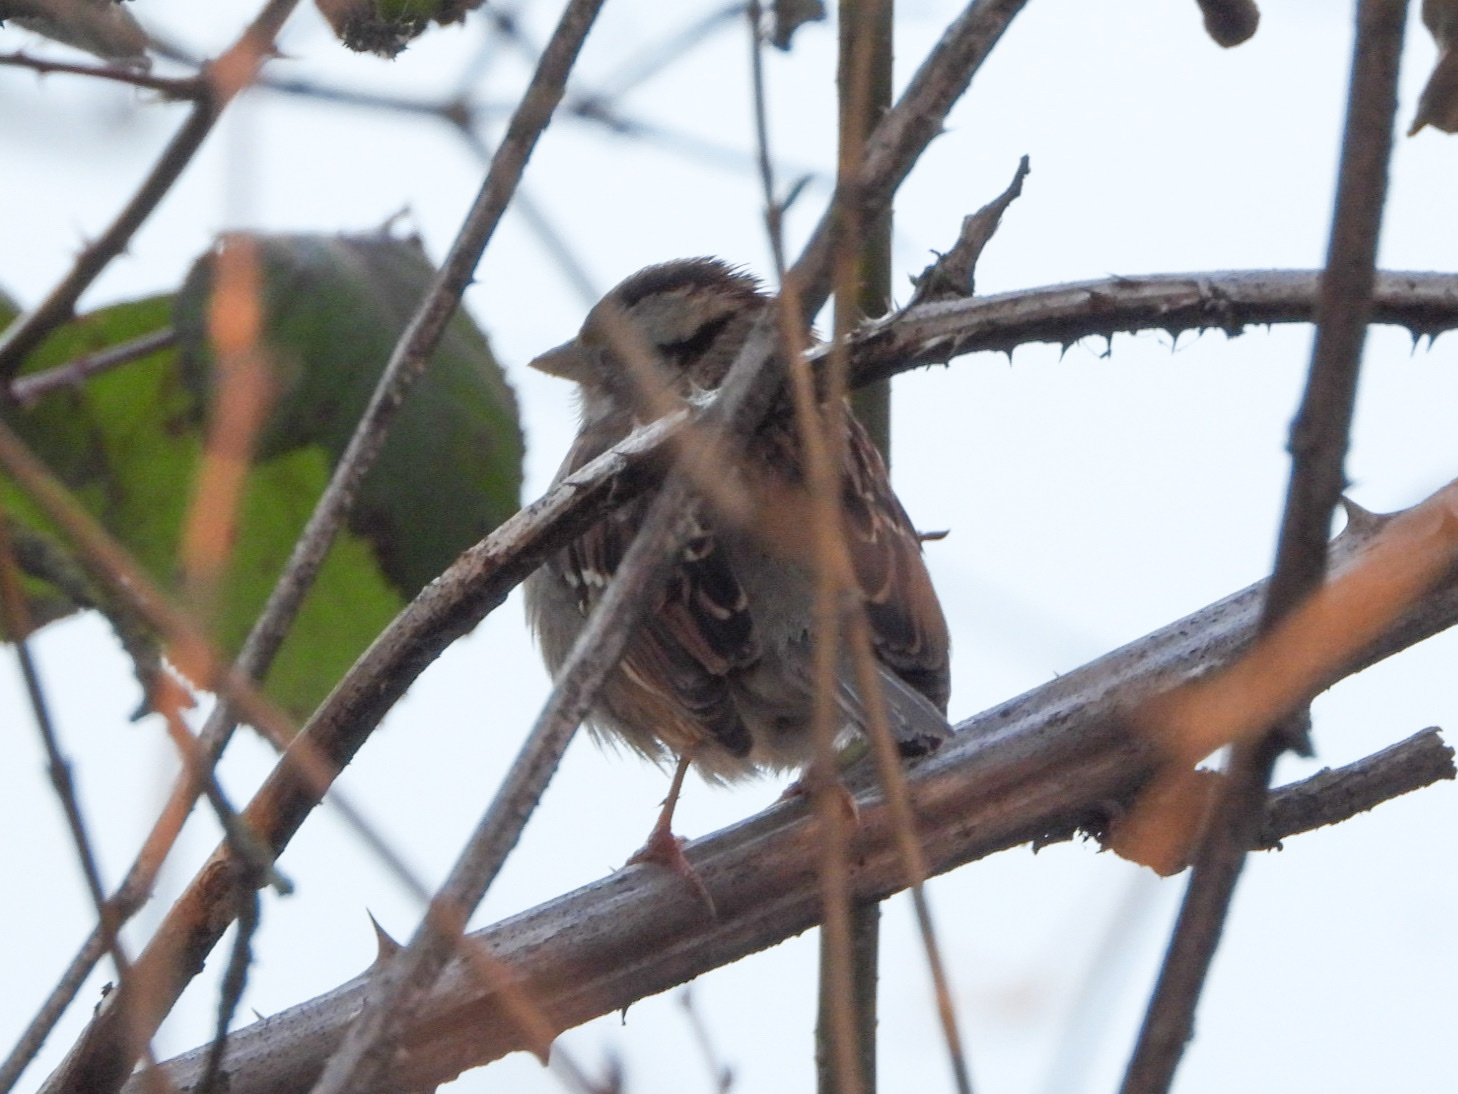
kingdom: Animalia
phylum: Chordata
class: Aves
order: Passeriformes
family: Passerellidae
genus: Zonotrichia
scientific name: Zonotrichia albicollis
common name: White-throated sparrow
